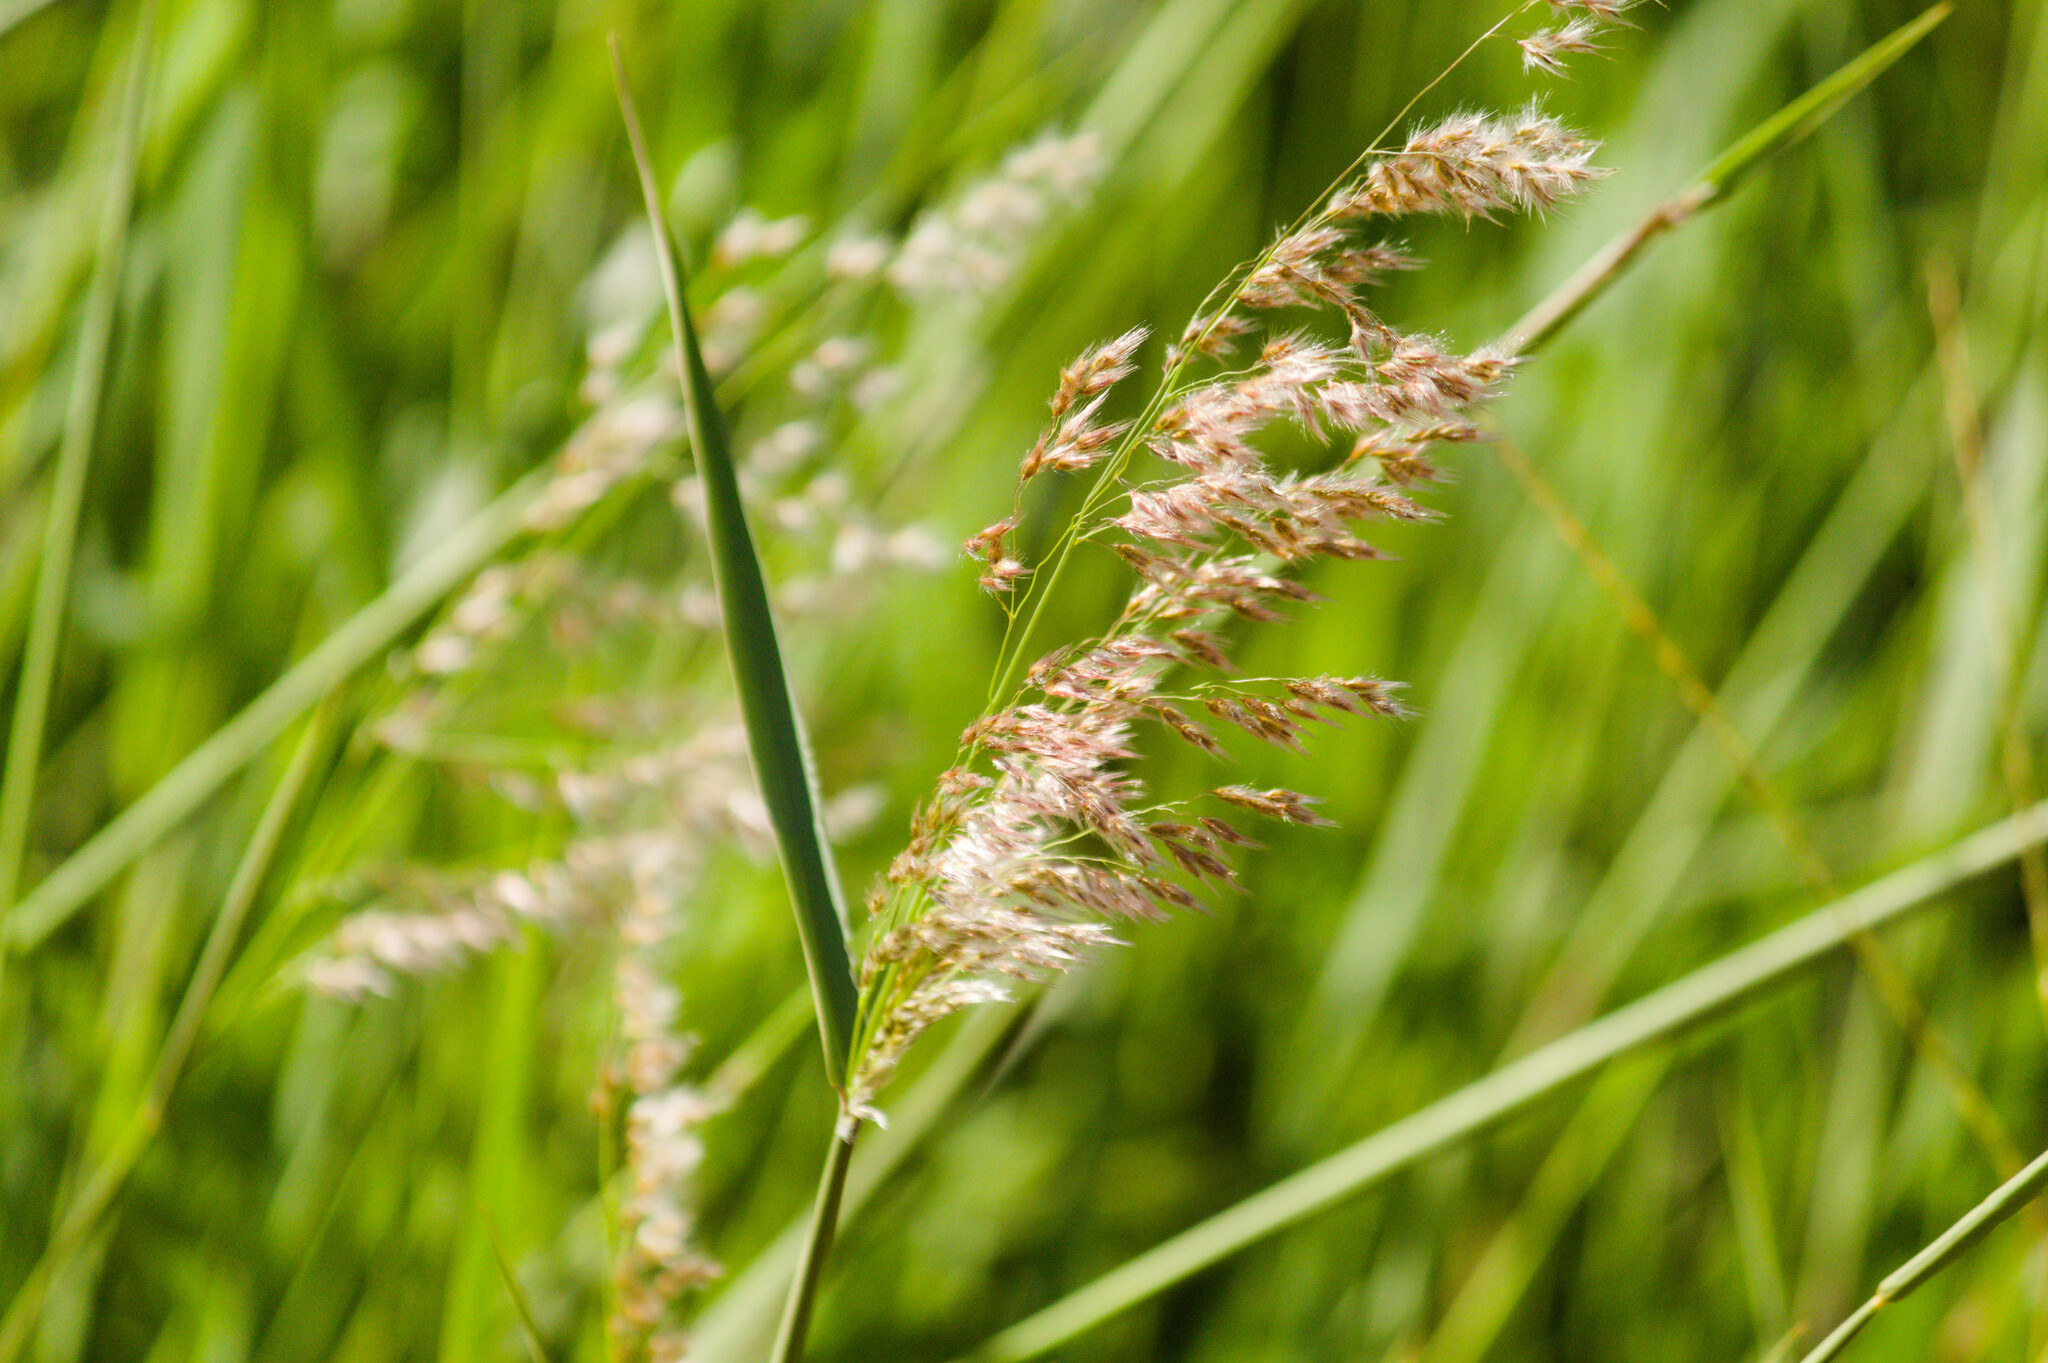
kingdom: Plantae
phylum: Tracheophyta
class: Liliopsida
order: Poales
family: Poaceae
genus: Melinis
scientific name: Melinis repens
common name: Rose natal grass
